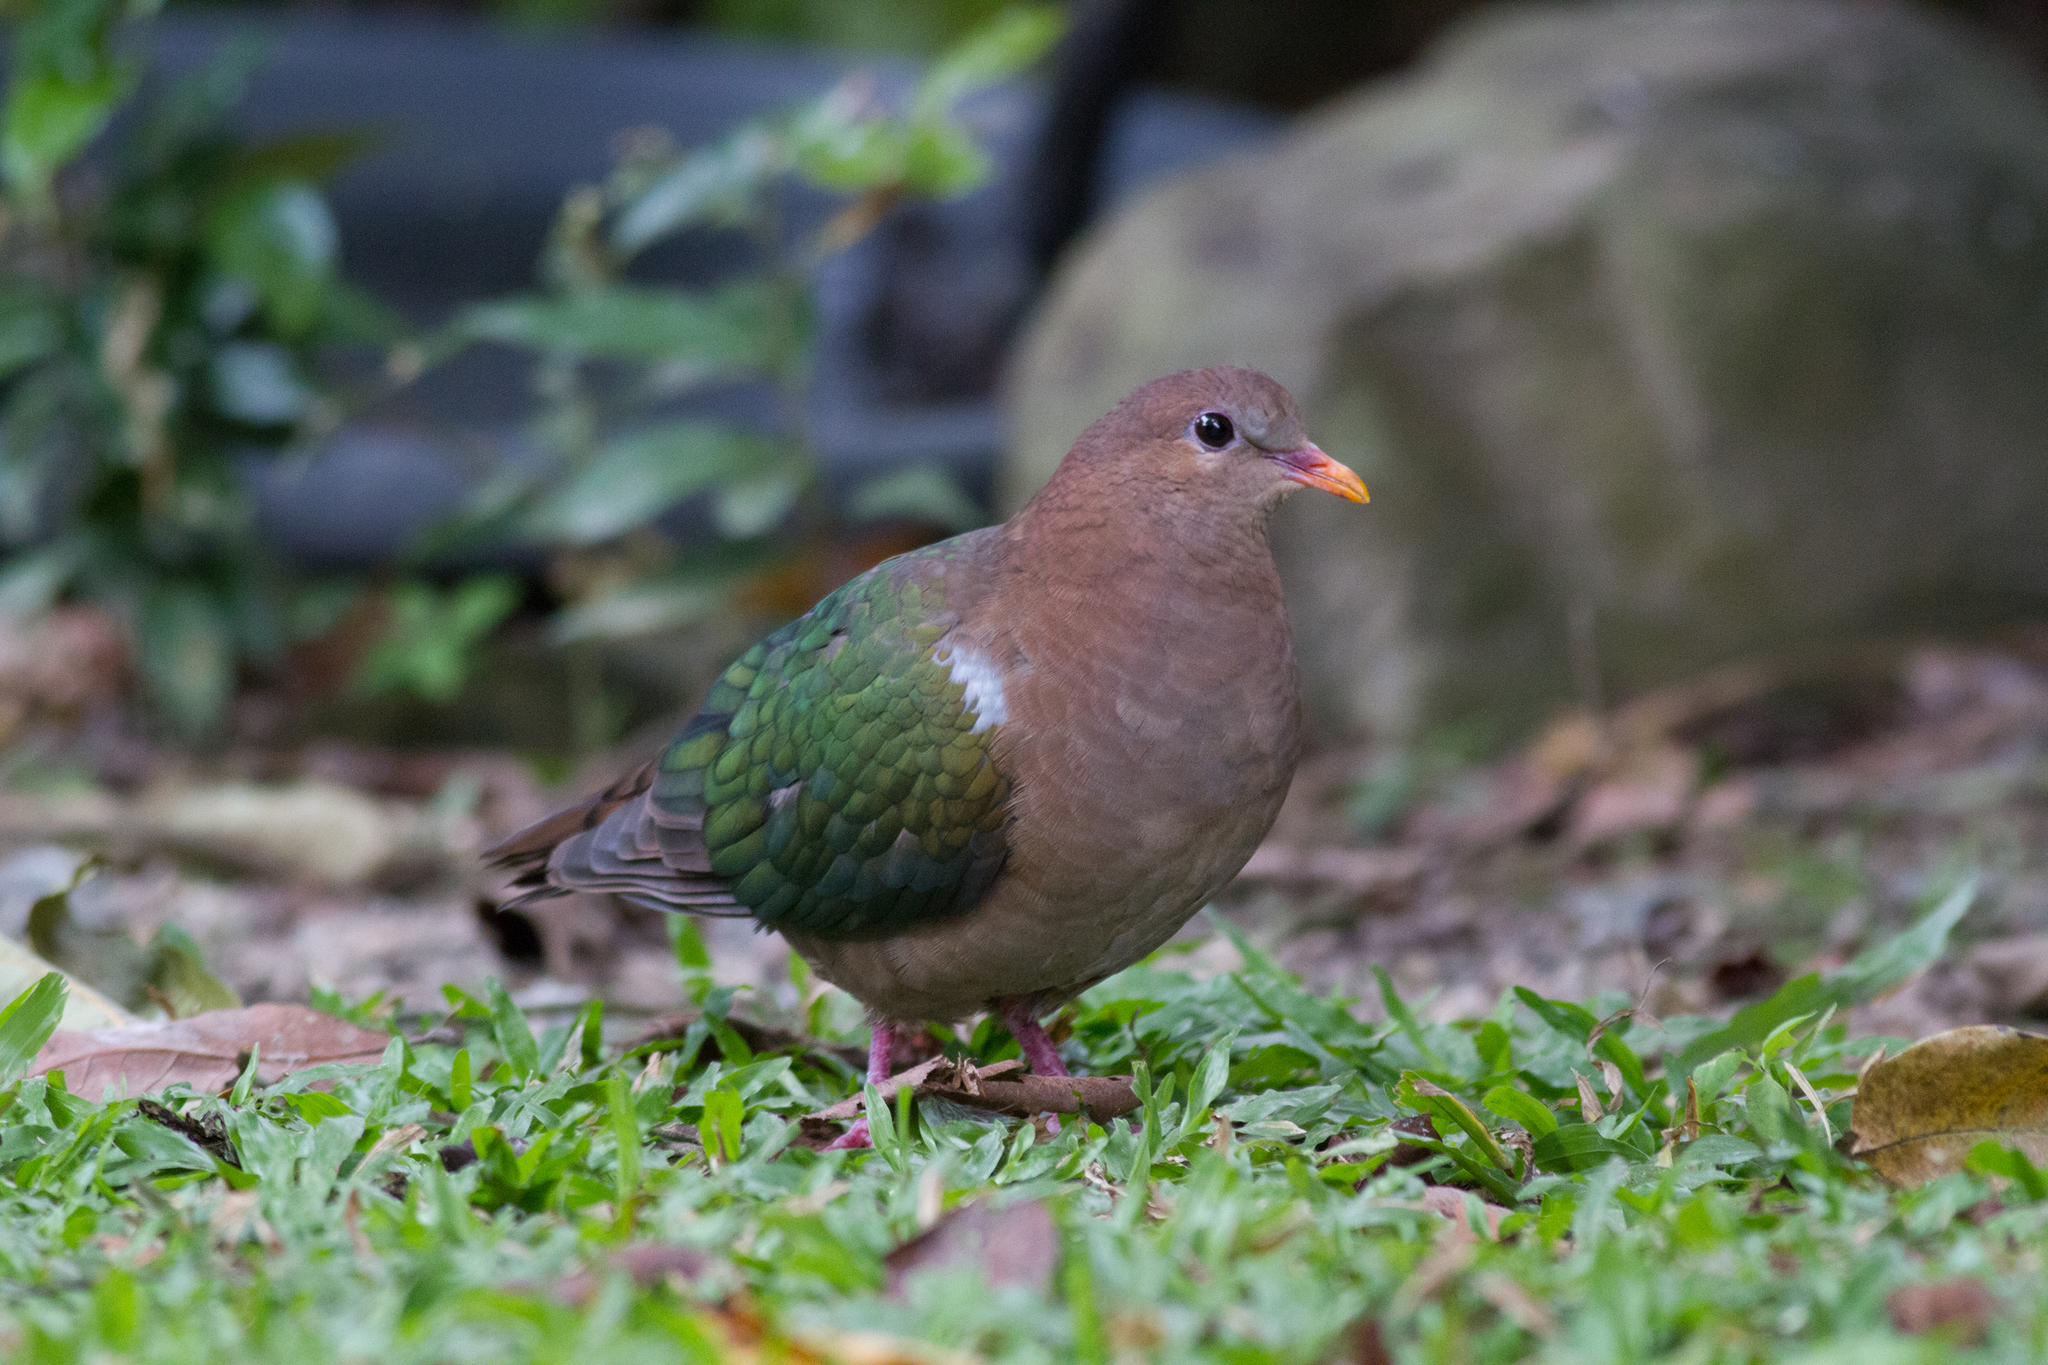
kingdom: Animalia
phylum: Chordata
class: Aves
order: Columbiformes
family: Columbidae
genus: Chalcophaps
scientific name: Chalcophaps longirostris
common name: Pacific emerald dove
